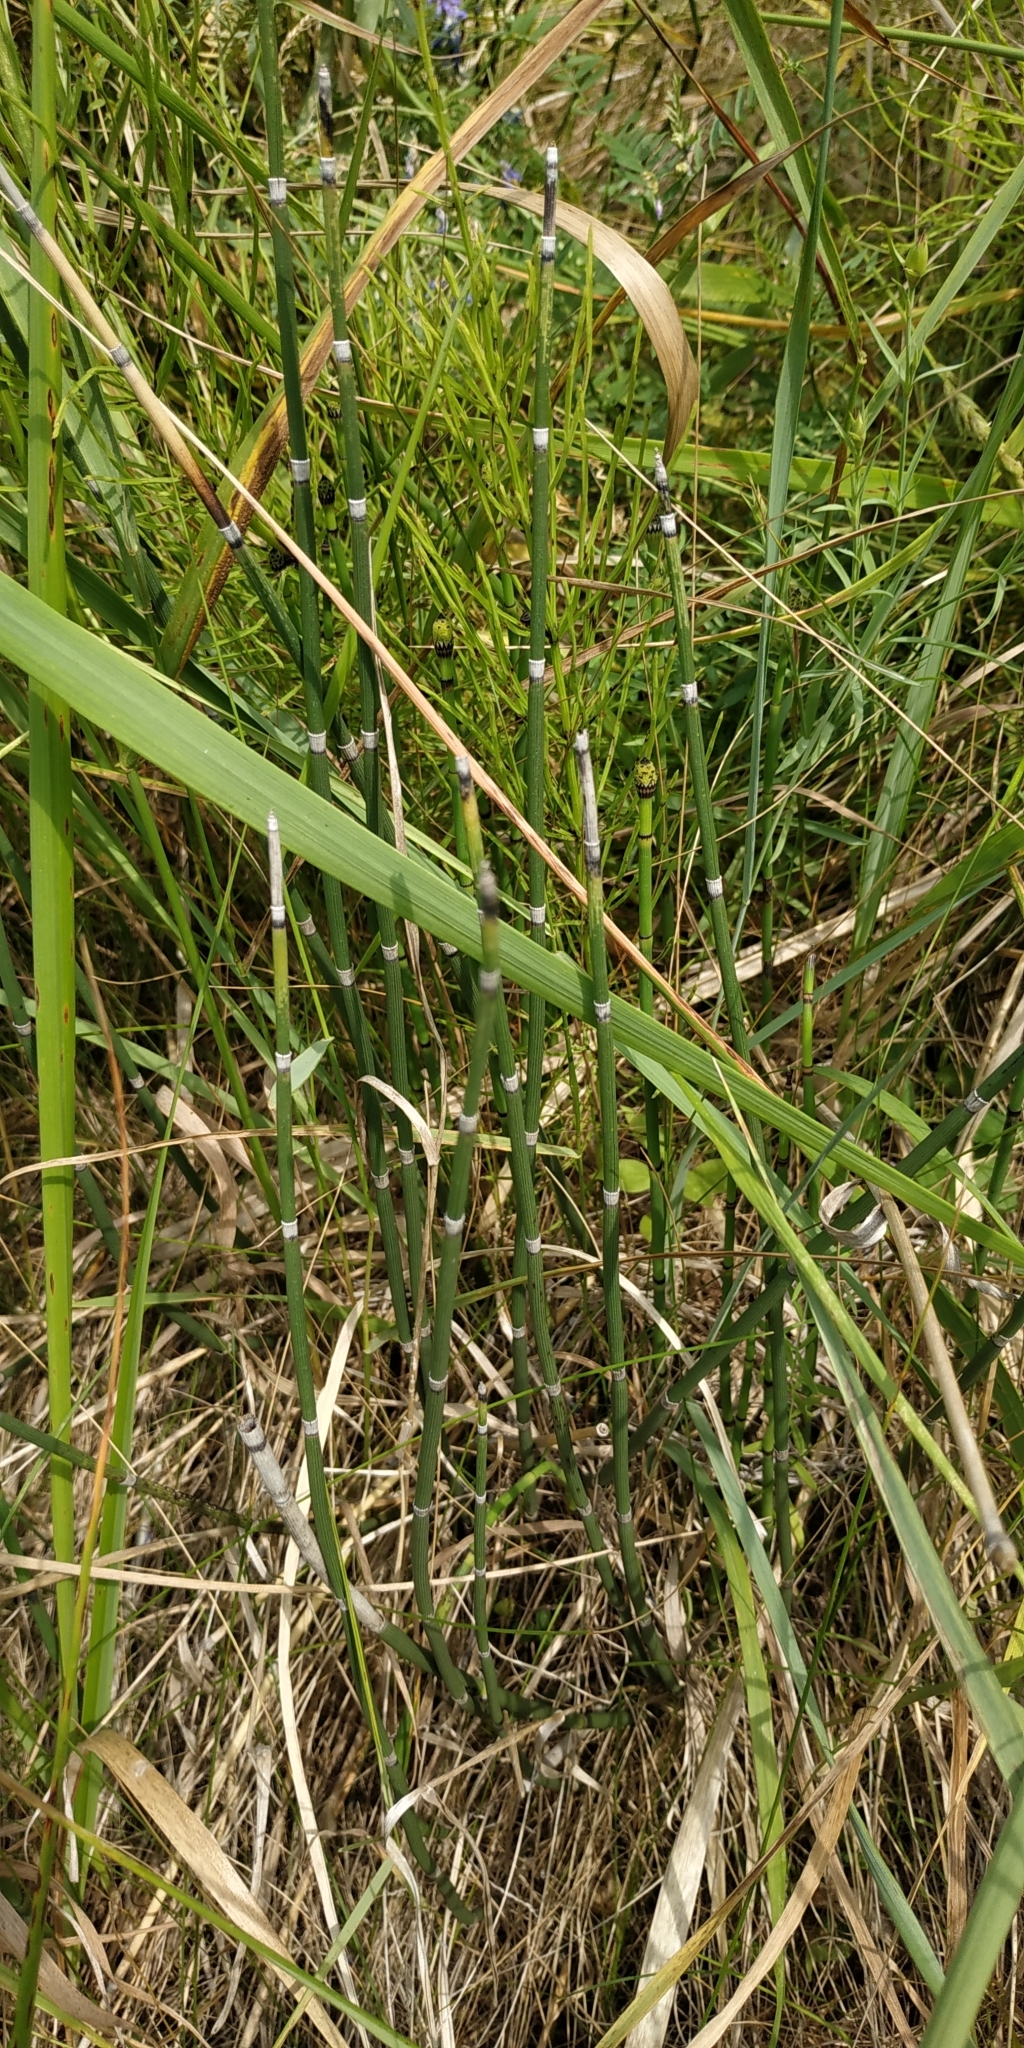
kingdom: Plantae
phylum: Tracheophyta
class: Polypodiopsida
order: Equisetales
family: Equisetaceae
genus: Equisetum
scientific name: Equisetum hyemale
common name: Rough horsetail
